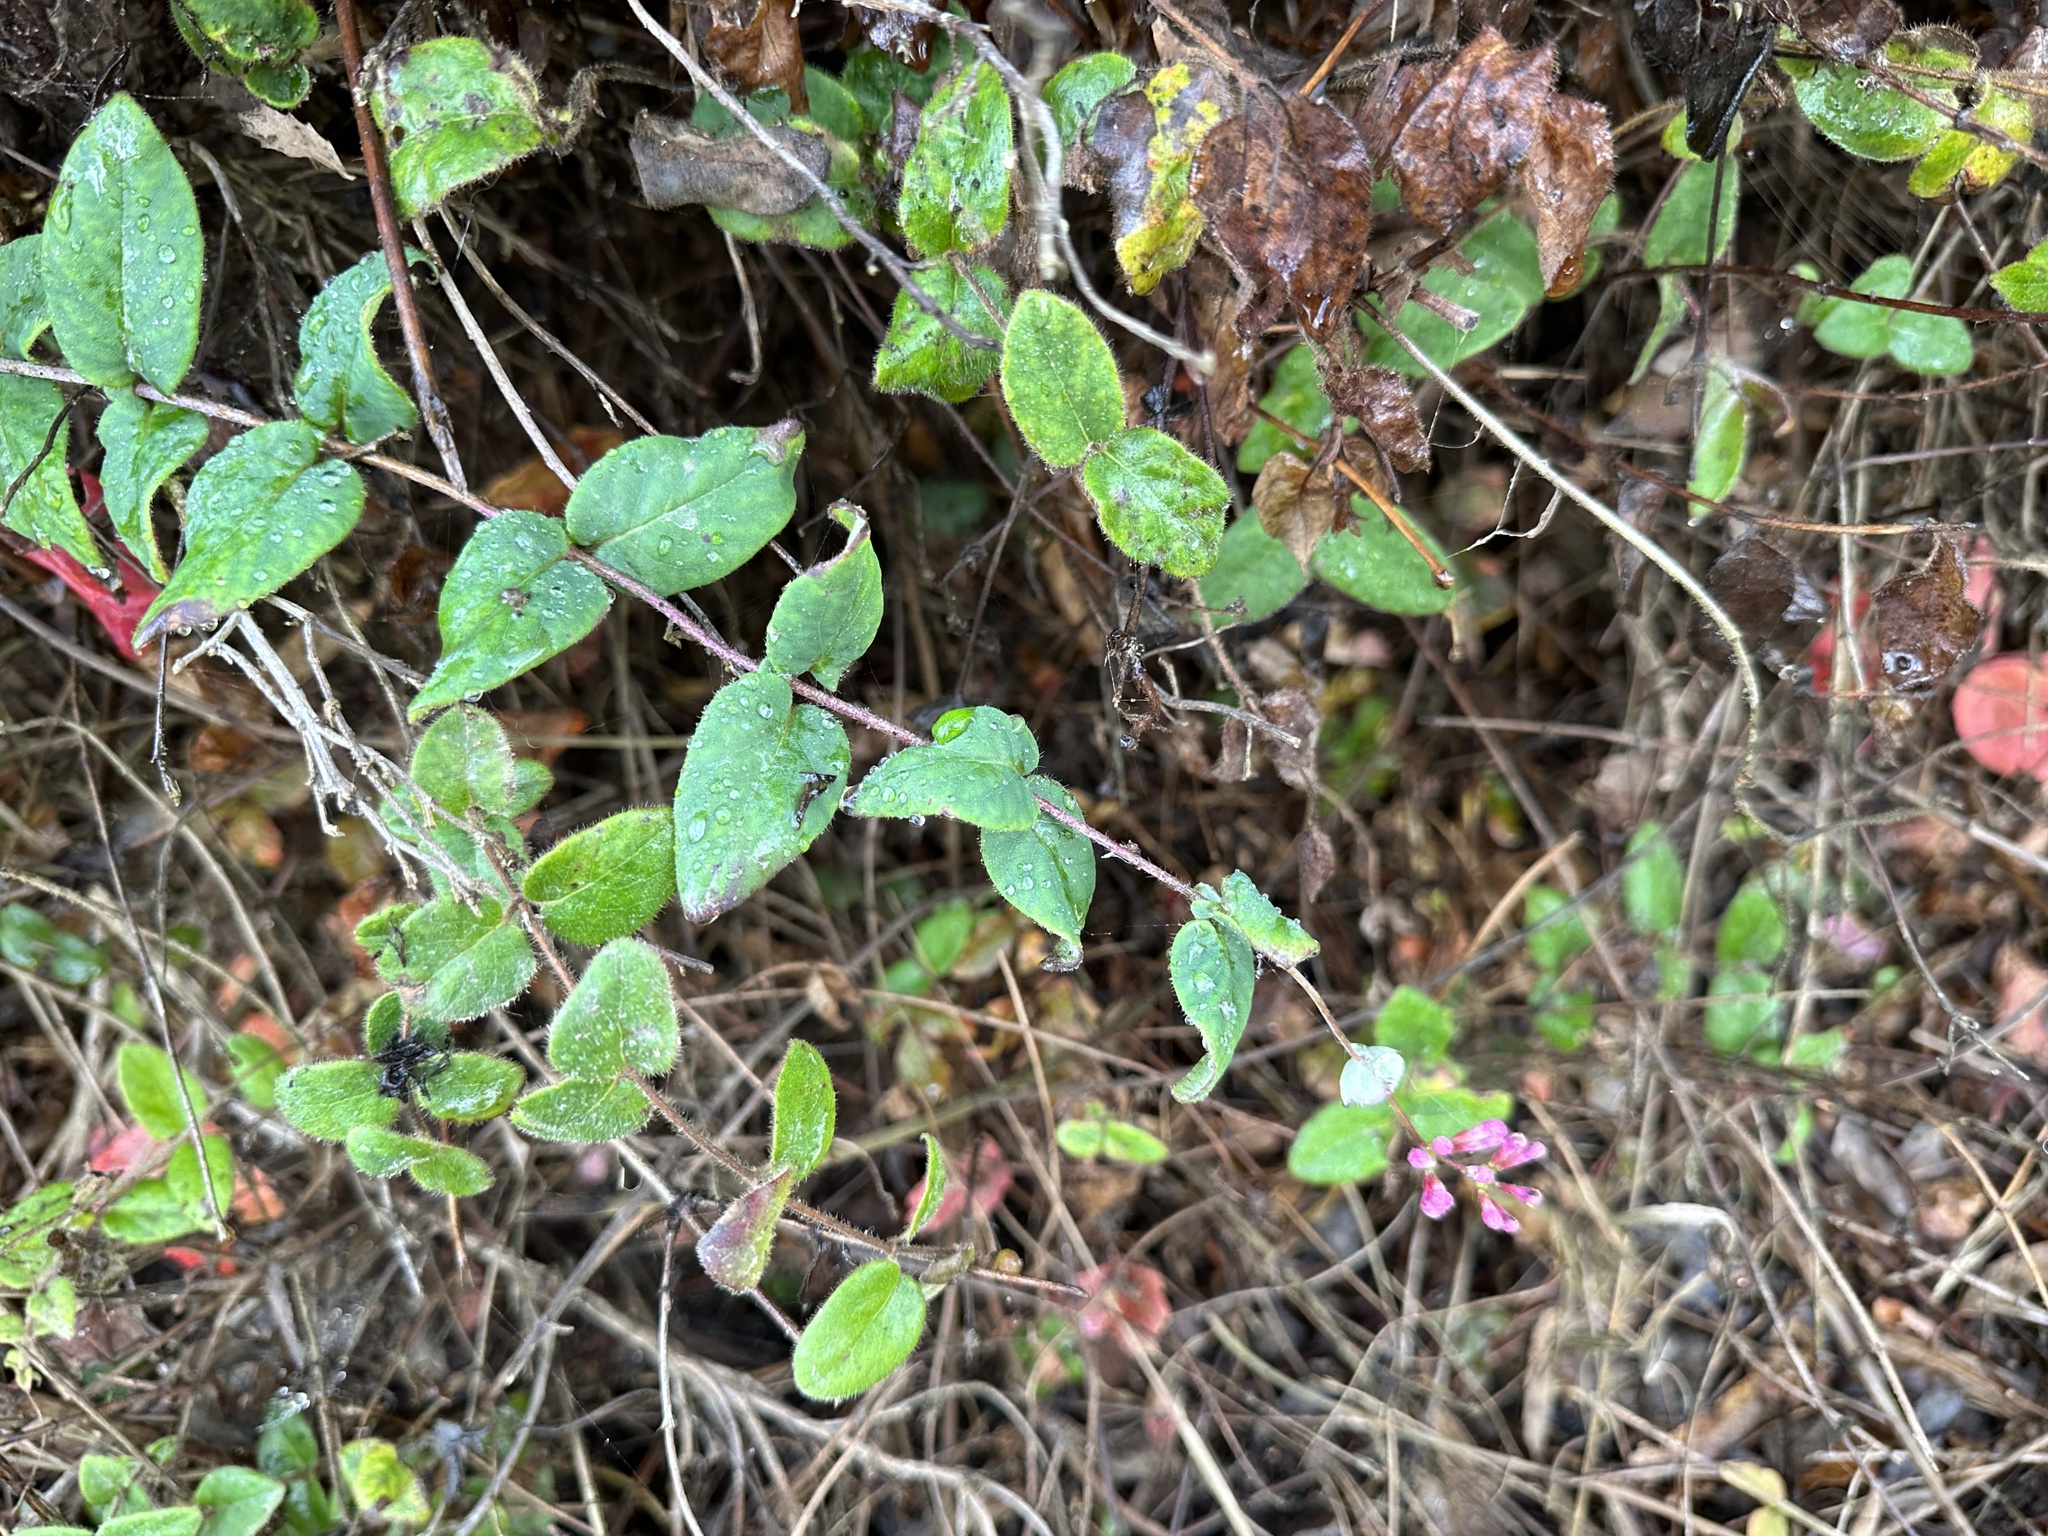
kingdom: Plantae
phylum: Tracheophyta
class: Magnoliopsida
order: Dipsacales
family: Caprifoliaceae
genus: Lonicera
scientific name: Lonicera hispidula
